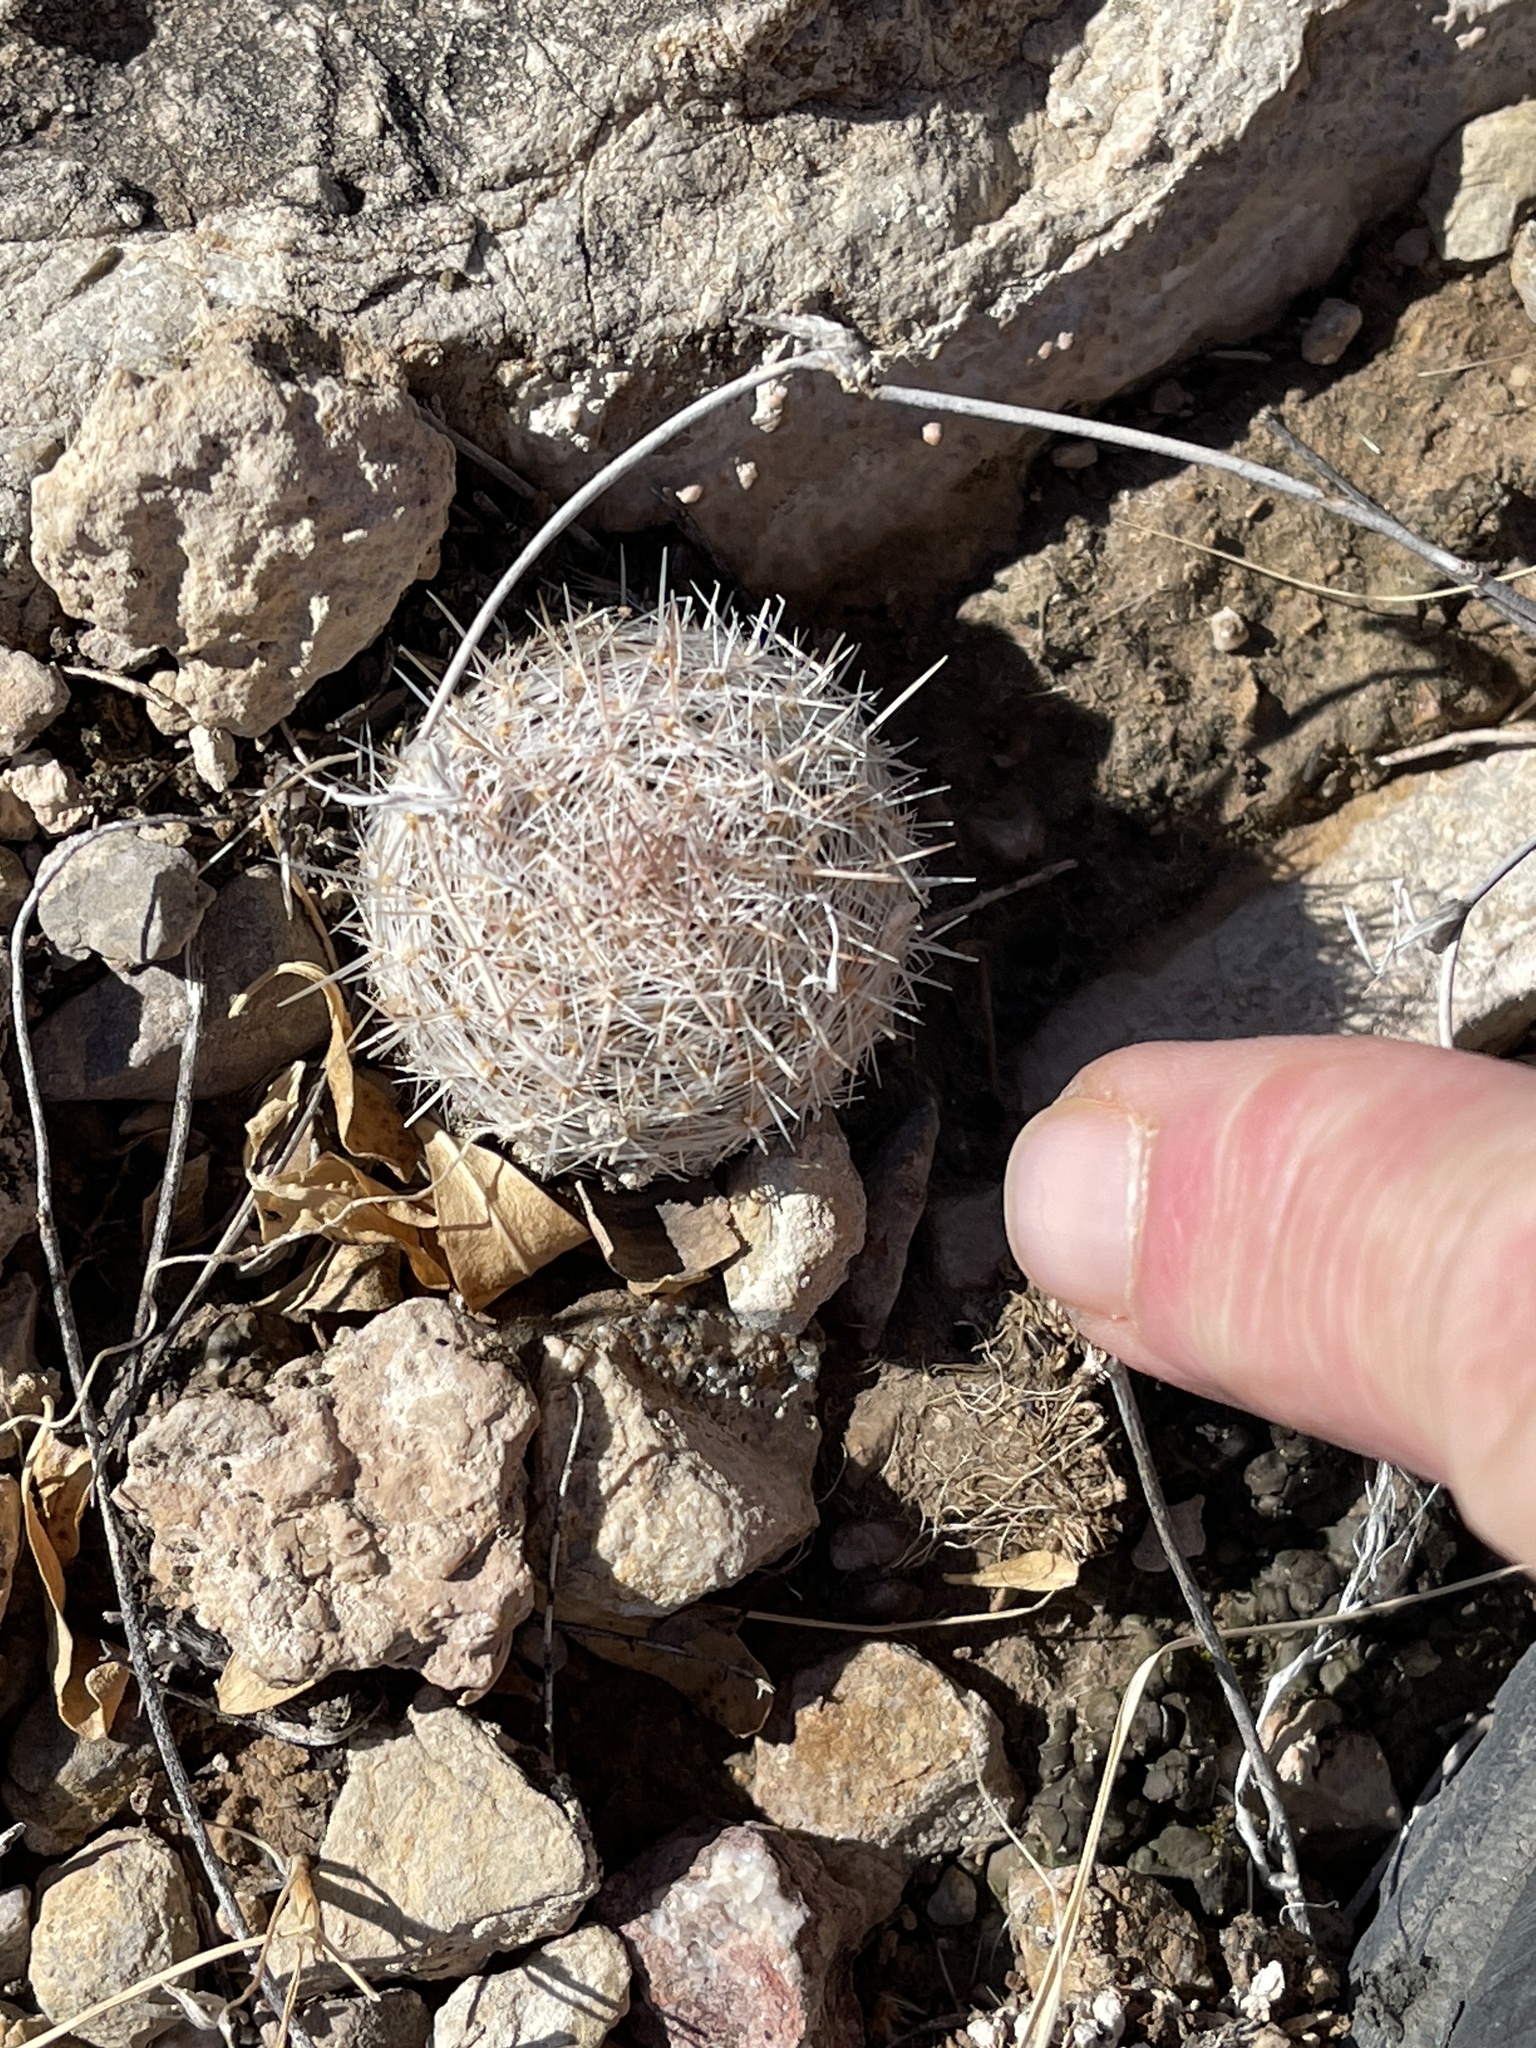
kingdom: Plantae
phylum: Tracheophyta
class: Magnoliopsida
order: Caryophyllales
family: Cactaceae
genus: Pelecyphora
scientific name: Pelecyphora tuberculosa
